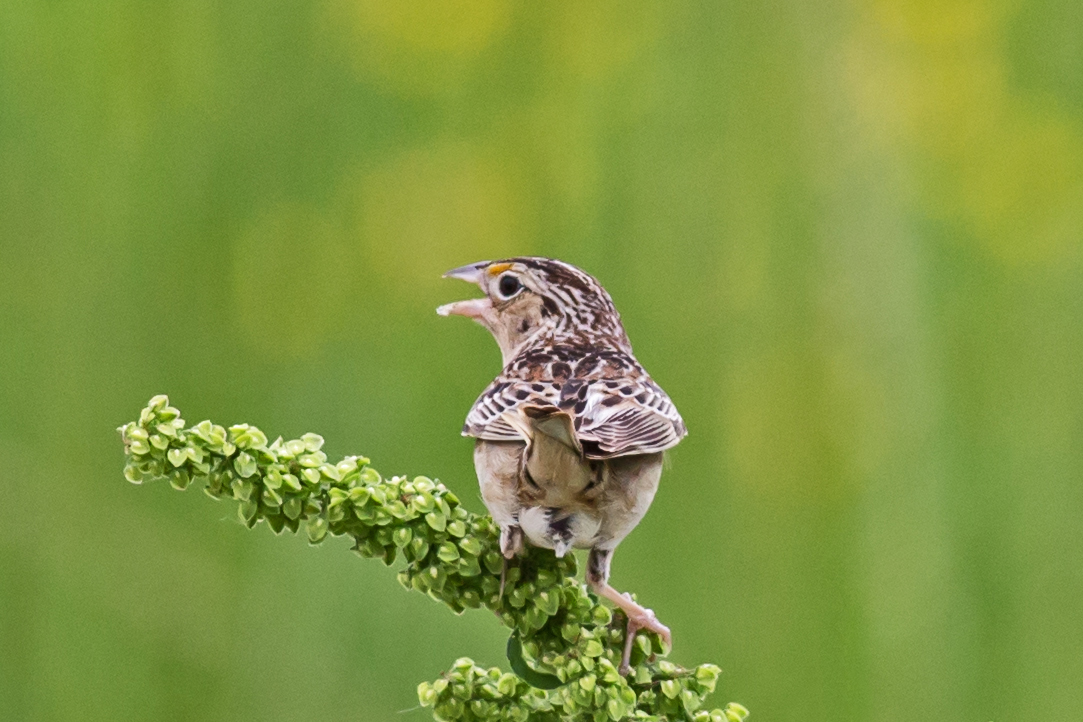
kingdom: Animalia
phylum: Chordata
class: Aves
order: Passeriformes
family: Passerellidae
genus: Ammodramus
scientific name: Ammodramus savannarum
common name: Grasshopper sparrow
